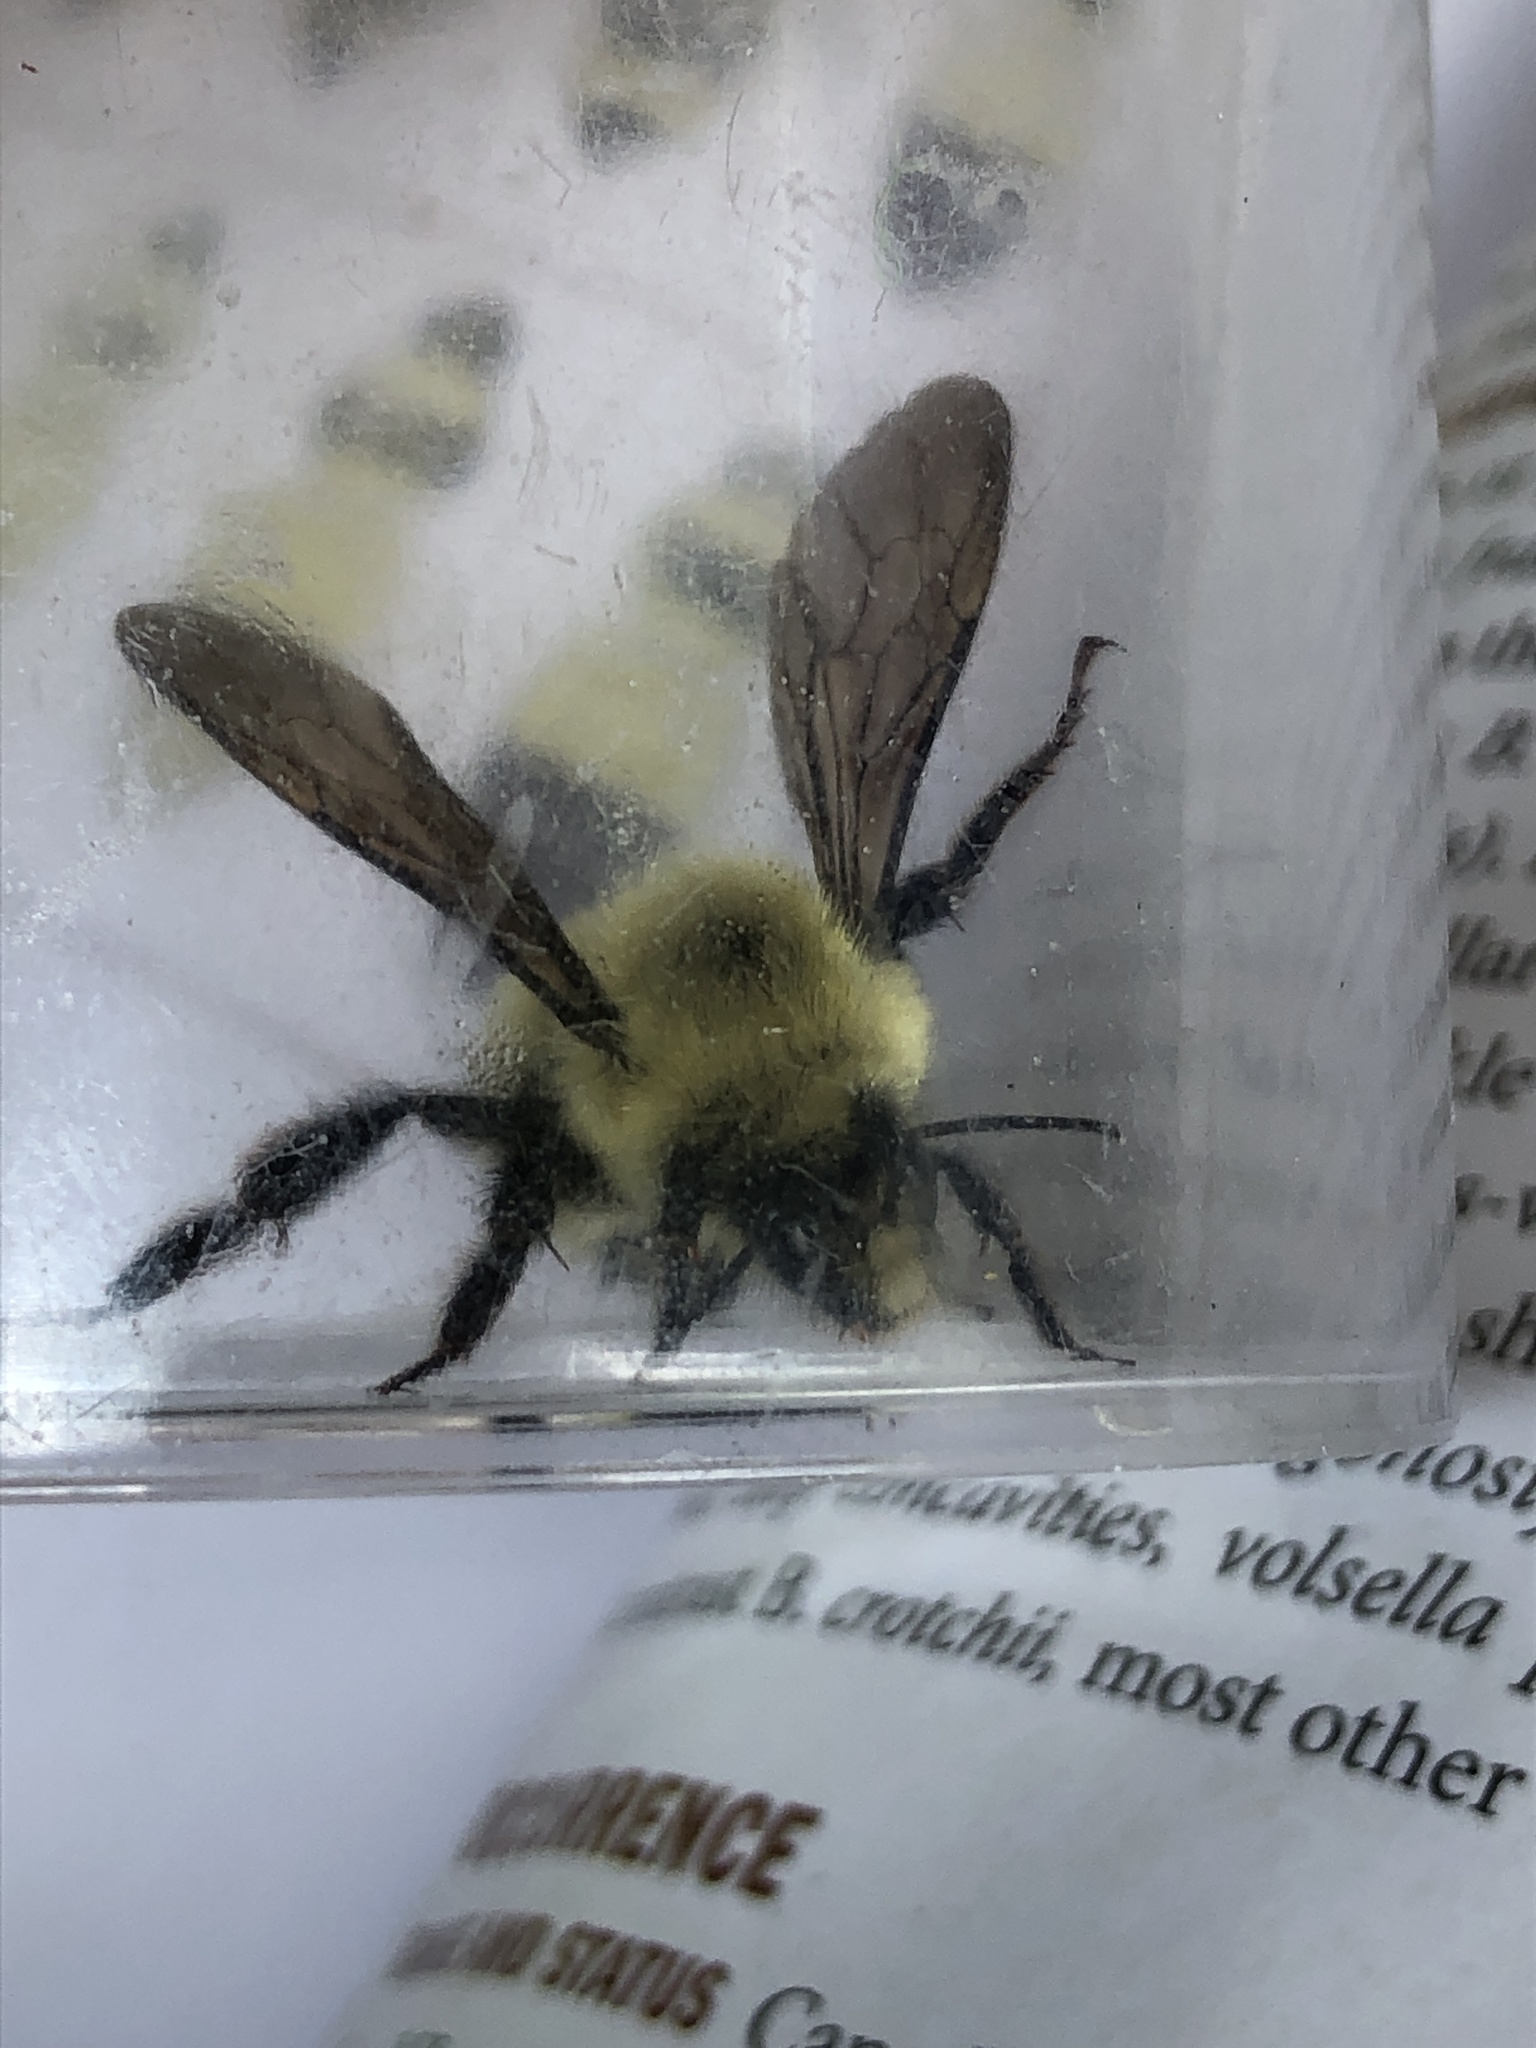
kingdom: Animalia
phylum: Arthropoda
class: Insecta
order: Hymenoptera
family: Apidae
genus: Bombus
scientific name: Bombus bimaculatus
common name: Two-spotted bumble bee
